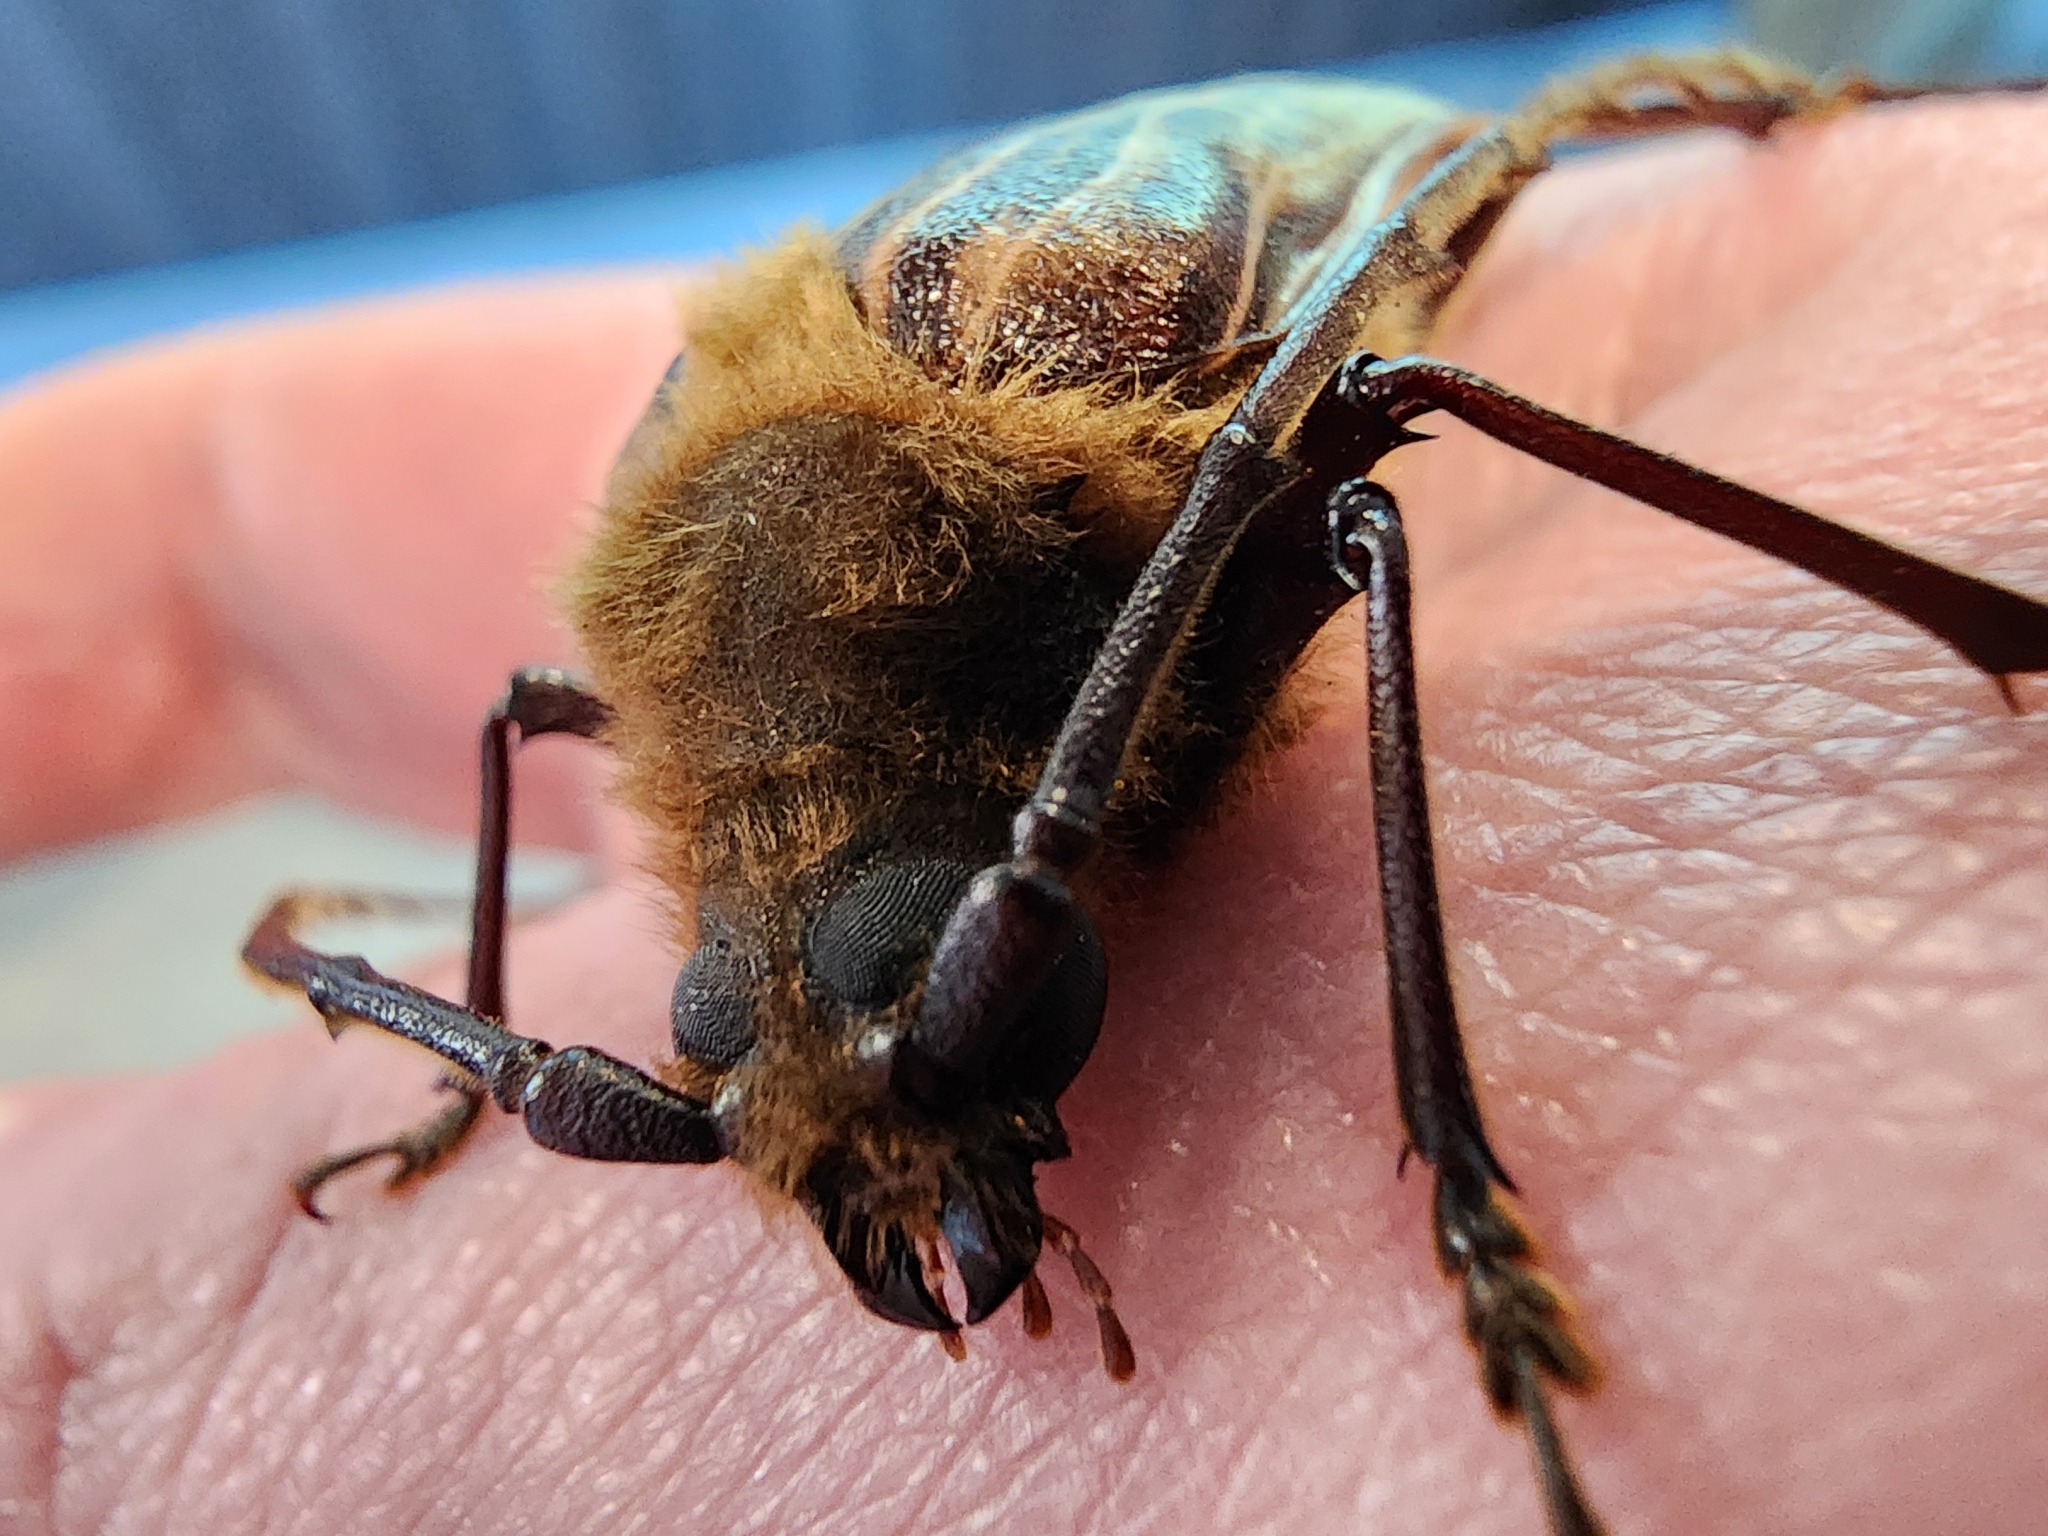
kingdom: Animalia
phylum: Arthropoda
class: Insecta
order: Coleoptera
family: Cerambycidae
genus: Prionoplus
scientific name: Prionoplus reticularis
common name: Huhu beetle
